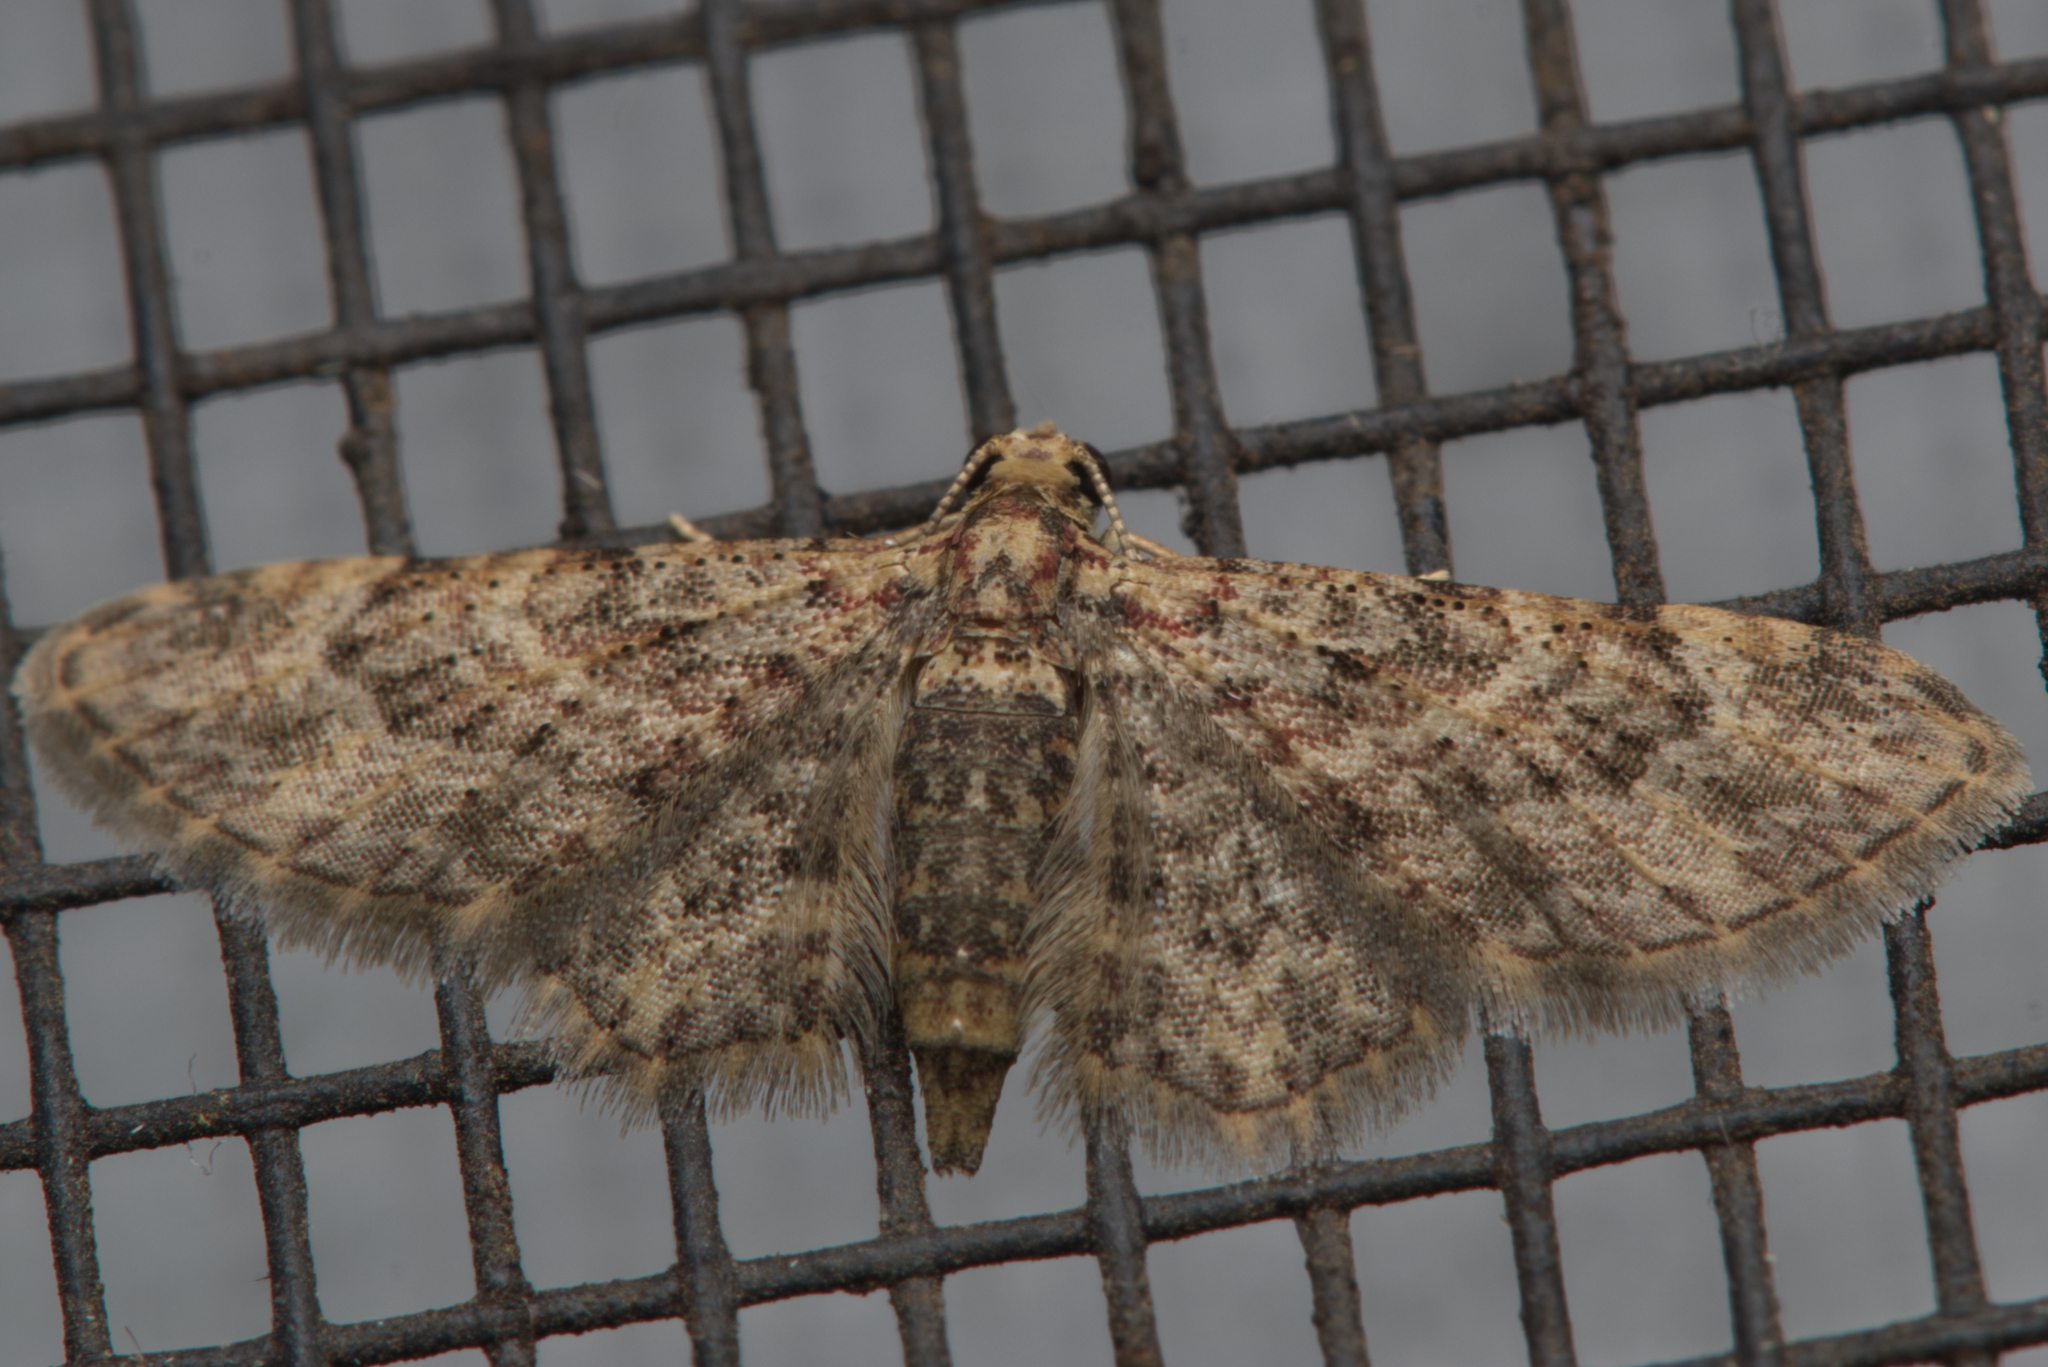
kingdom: Animalia
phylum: Arthropoda
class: Insecta
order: Lepidoptera
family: Geometridae
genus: Spiralisigna
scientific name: Spiralisigna acidna
